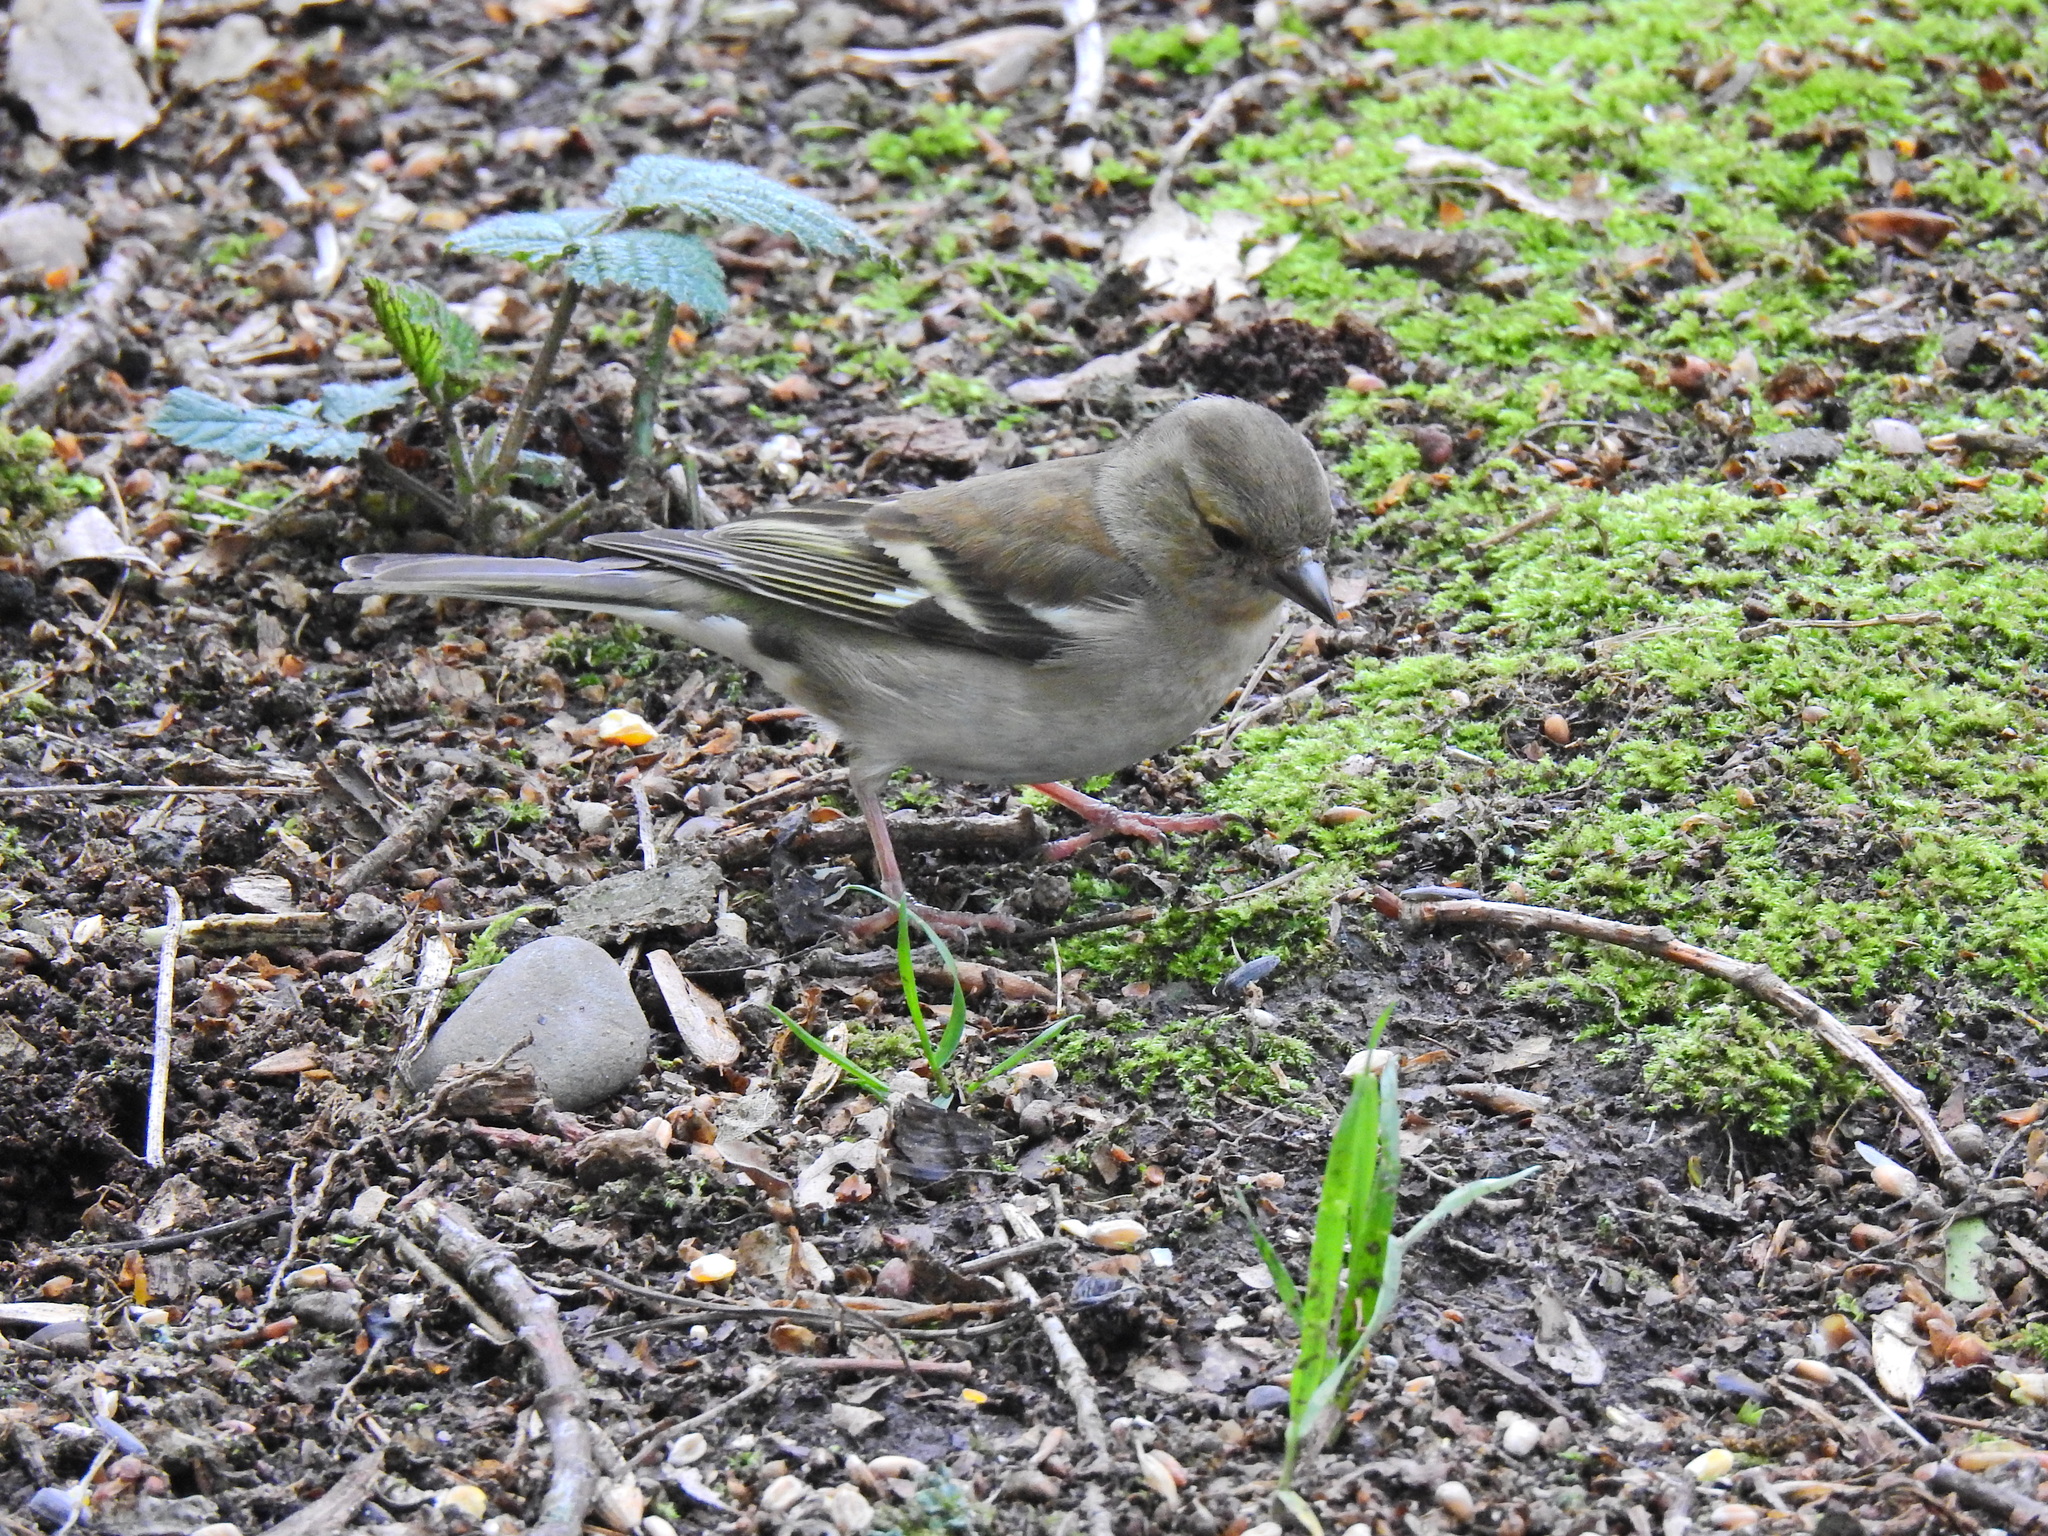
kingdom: Animalia
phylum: Chordata
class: Aves
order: Passeriformes
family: Fringillidae
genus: Fringilla
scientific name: Fringilla coelebs
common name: Common chaffinch
